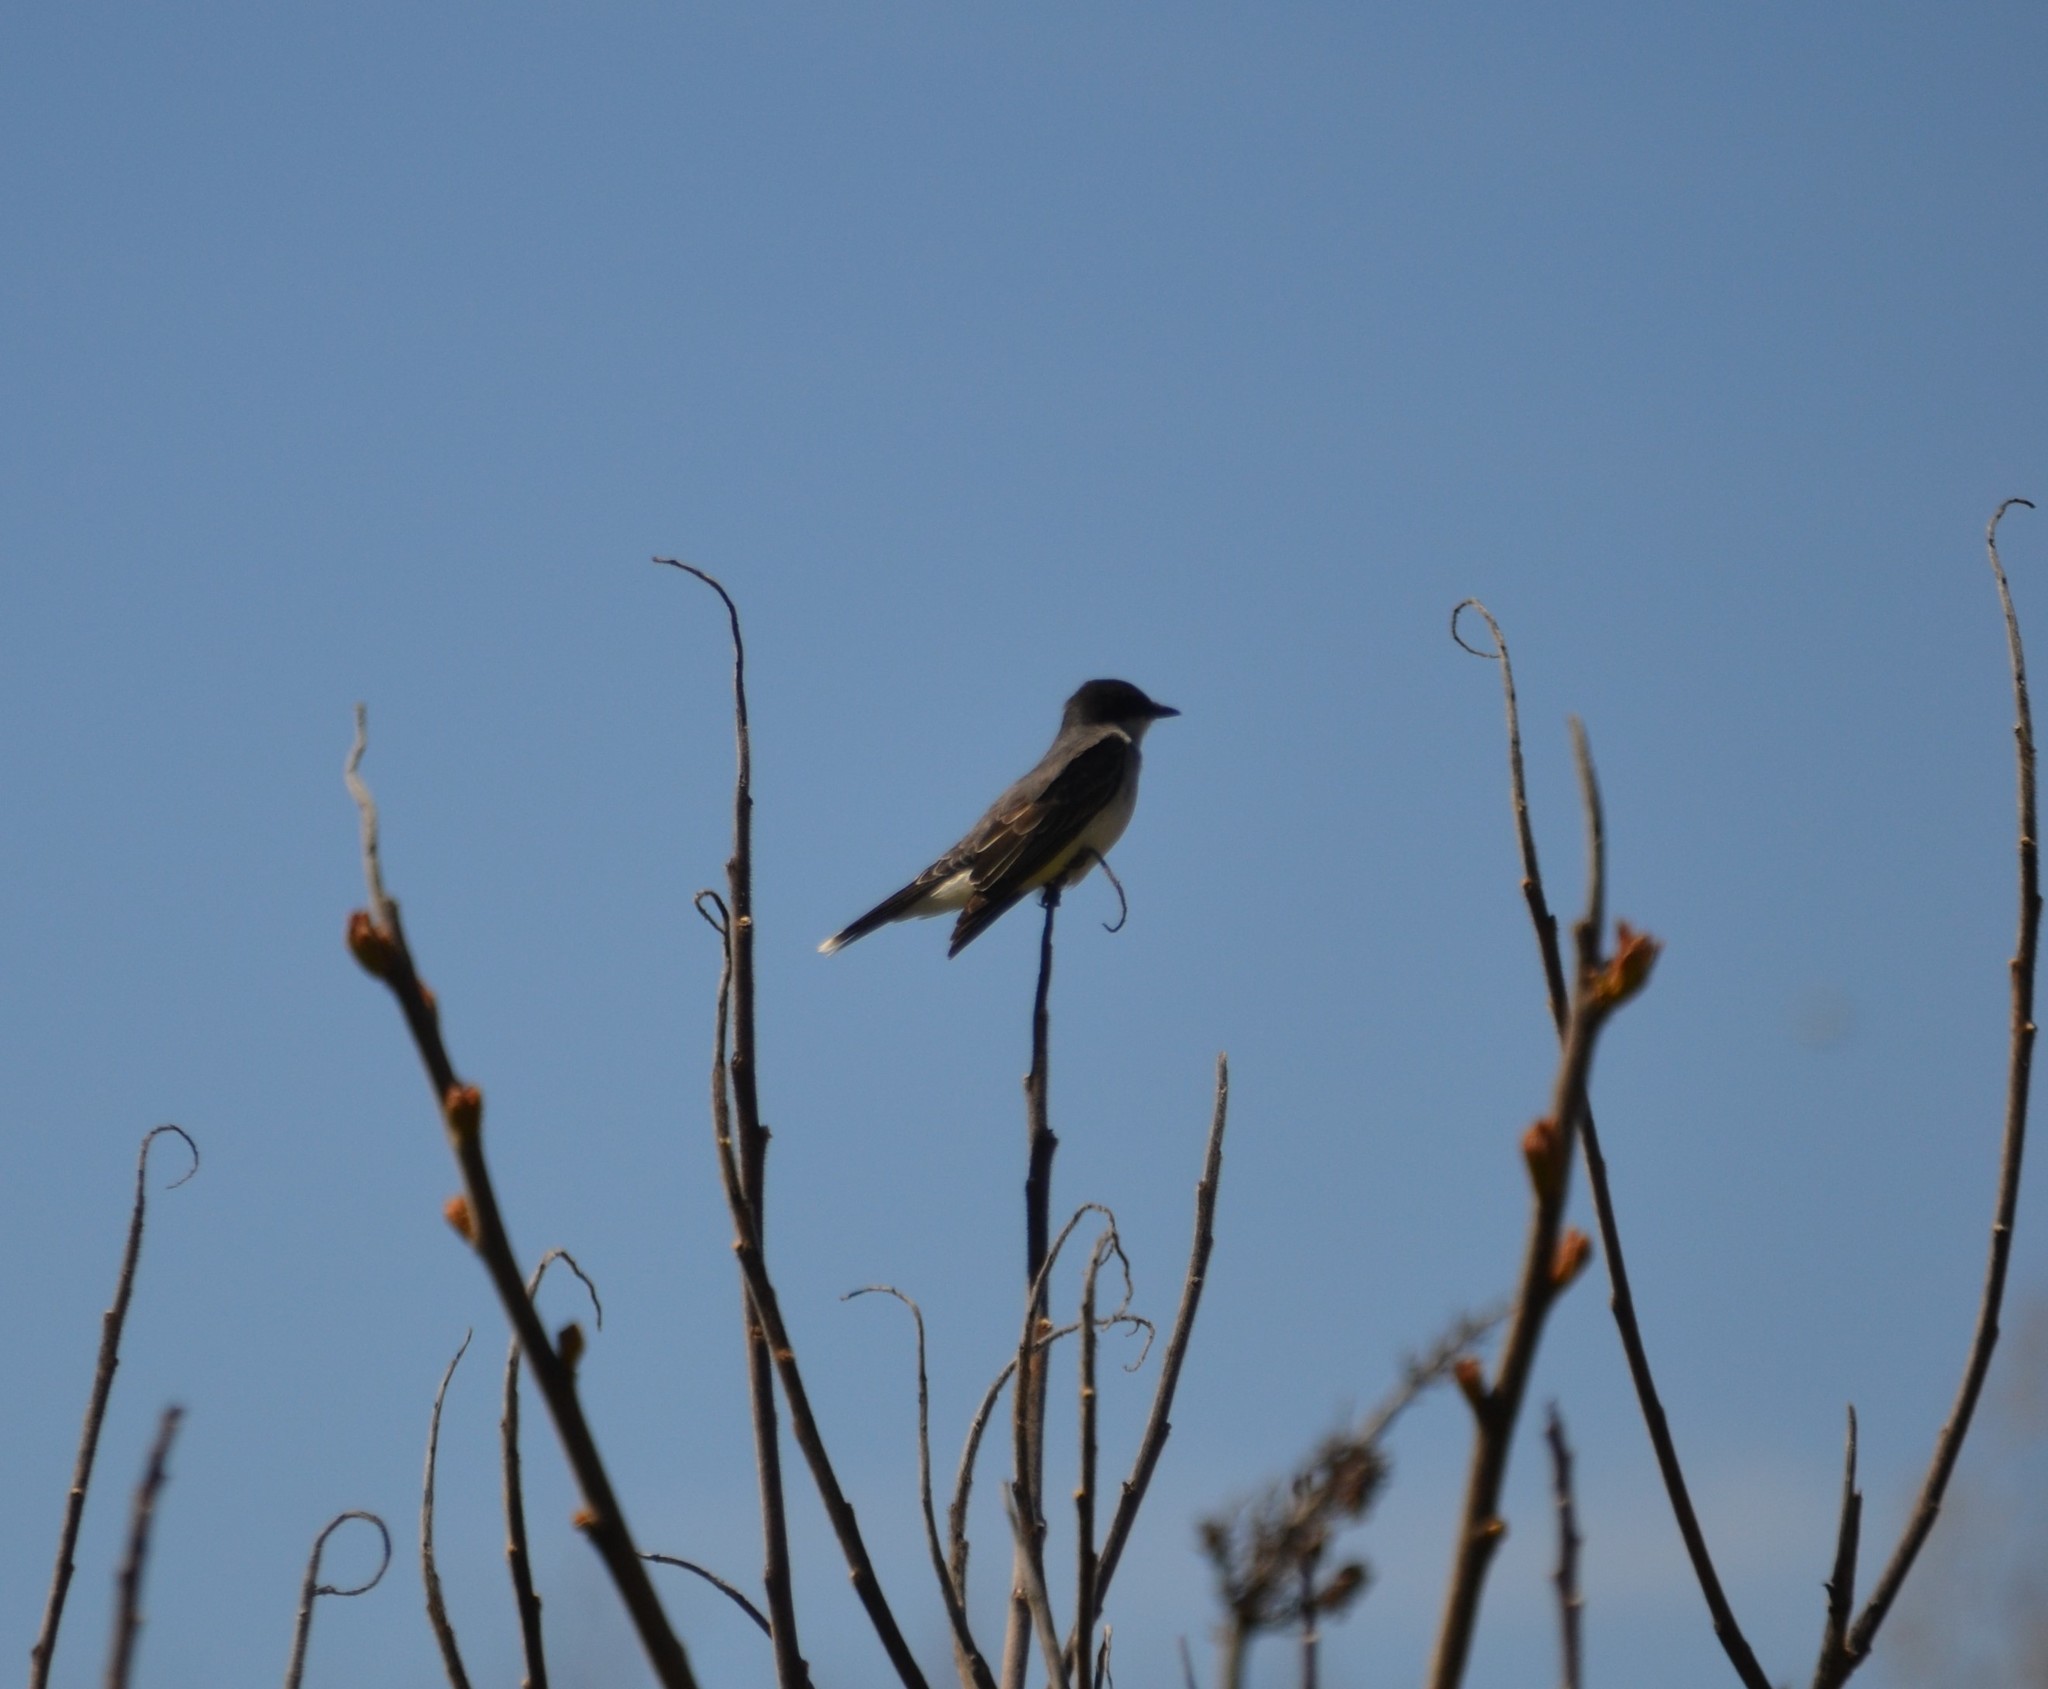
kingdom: Animalia
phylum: Chordata
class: Aves
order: Passeriformes
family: Tyrannidae
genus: Tyrannus
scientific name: Tyrannus tyrannus
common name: Eastern kingbird
